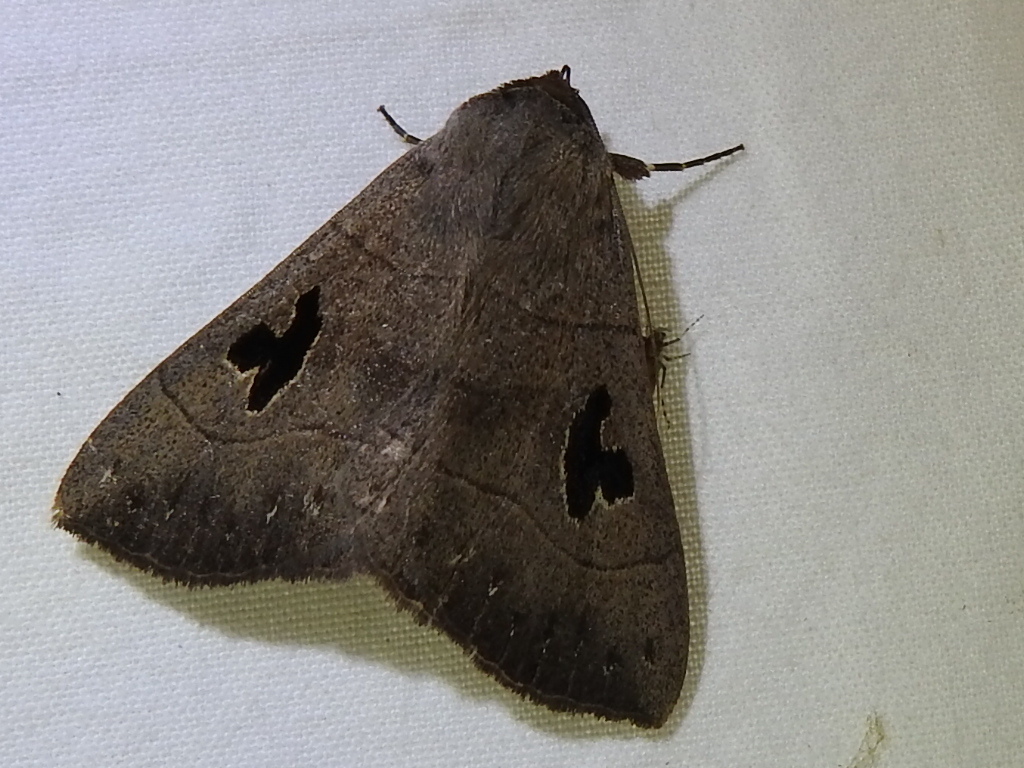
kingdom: Animalia
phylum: Arthropoda
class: Insecta
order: Lepidoptera
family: Erebidae
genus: Panopoda
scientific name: Panopoda carneicosta
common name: Brown panopoda moth
